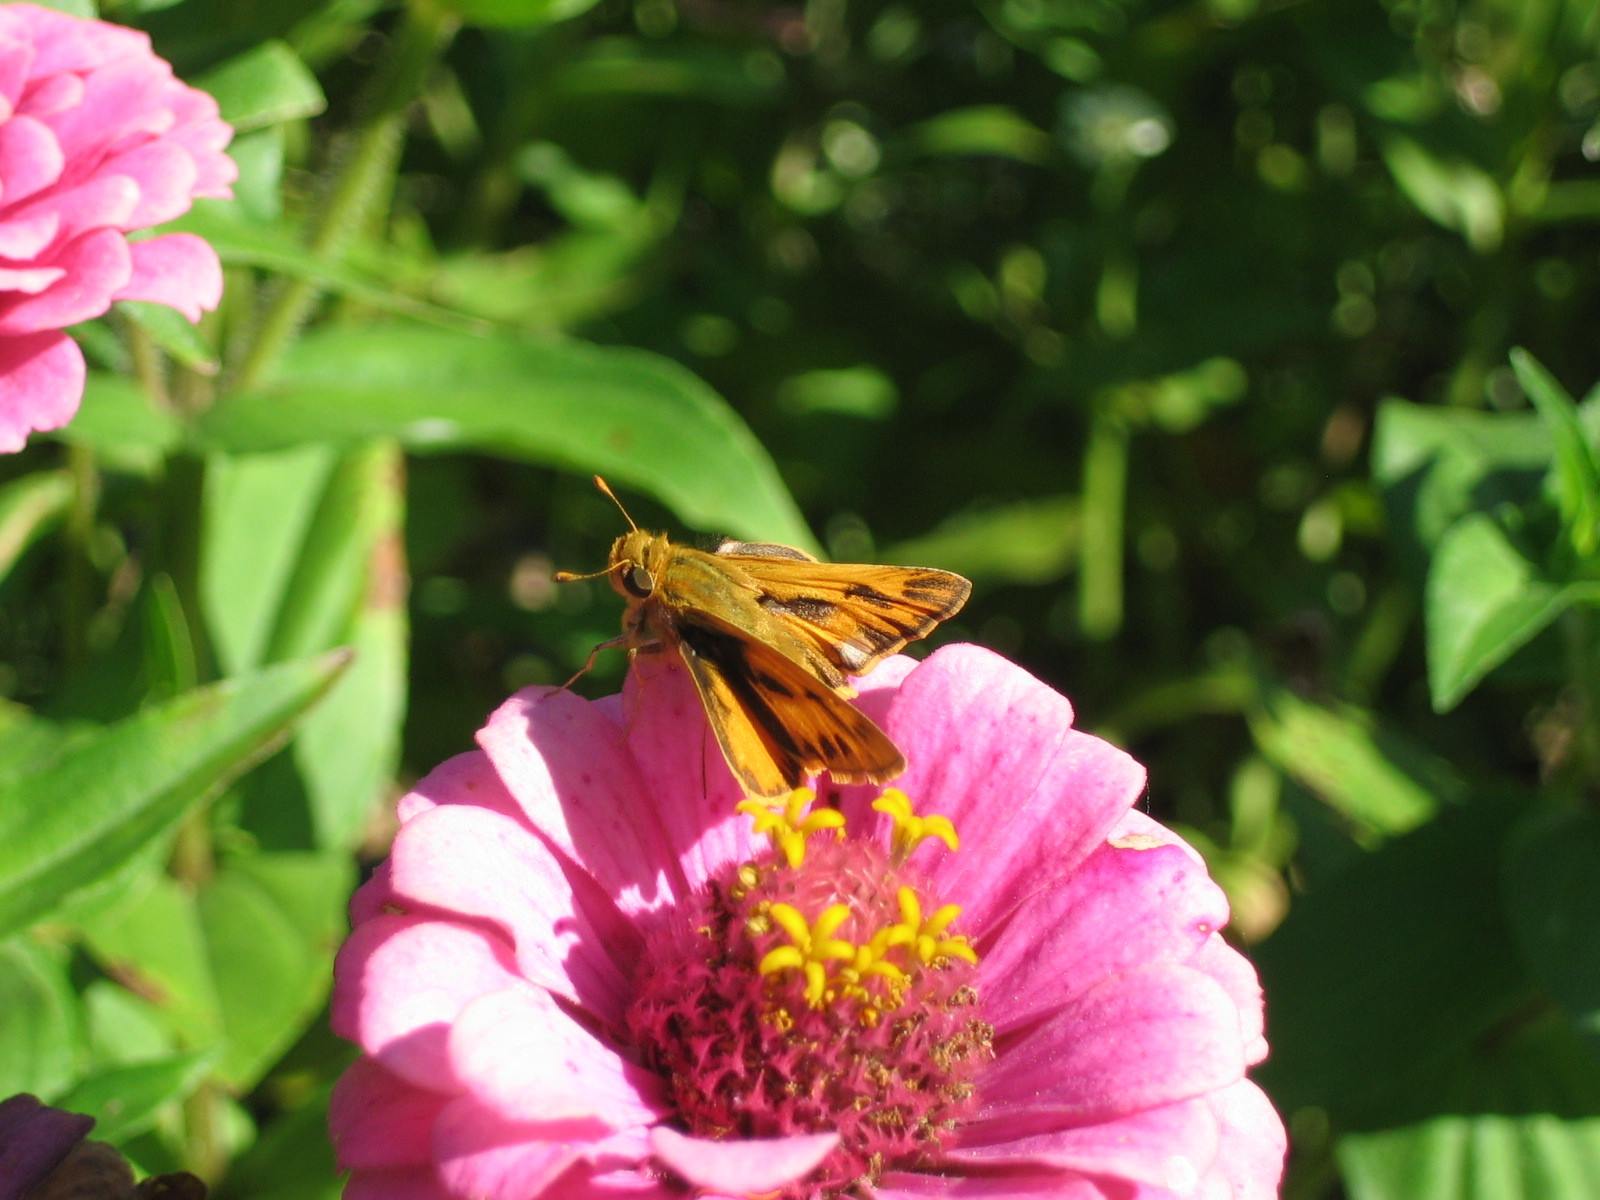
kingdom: Animalia
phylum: Arthropoda
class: Insecta
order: Lepidoptera
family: Hesperiidae
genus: Hylephila
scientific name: Hylephila phyleus
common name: Fiery skipper
